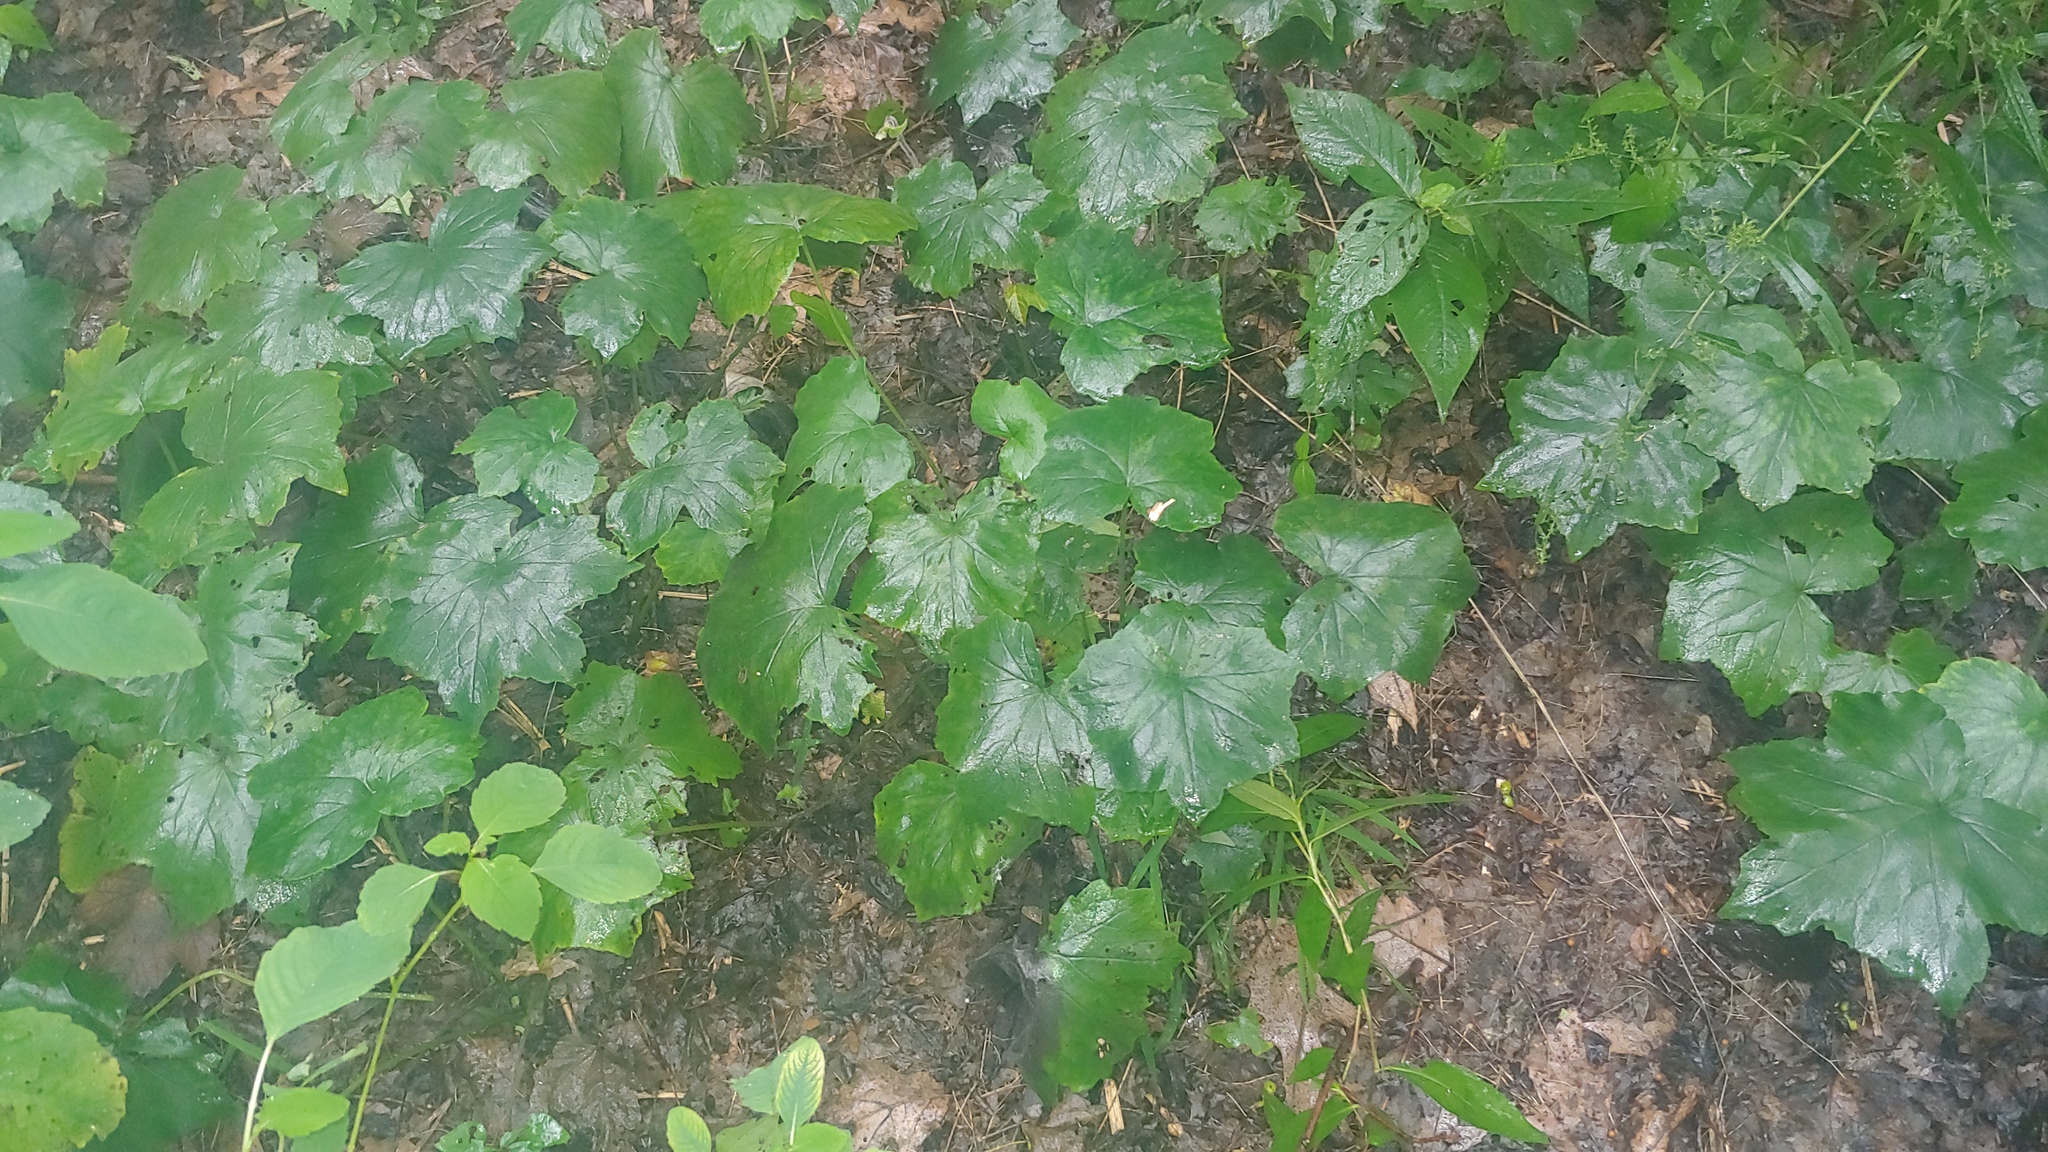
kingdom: Plantae
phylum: Tracheophyta
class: Magnoliopsida
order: Boraginales
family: Hydrophyllaceae
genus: Hydrophyllum
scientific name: Hydrophyllum appendiculatum
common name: Appendaged waterleaf
